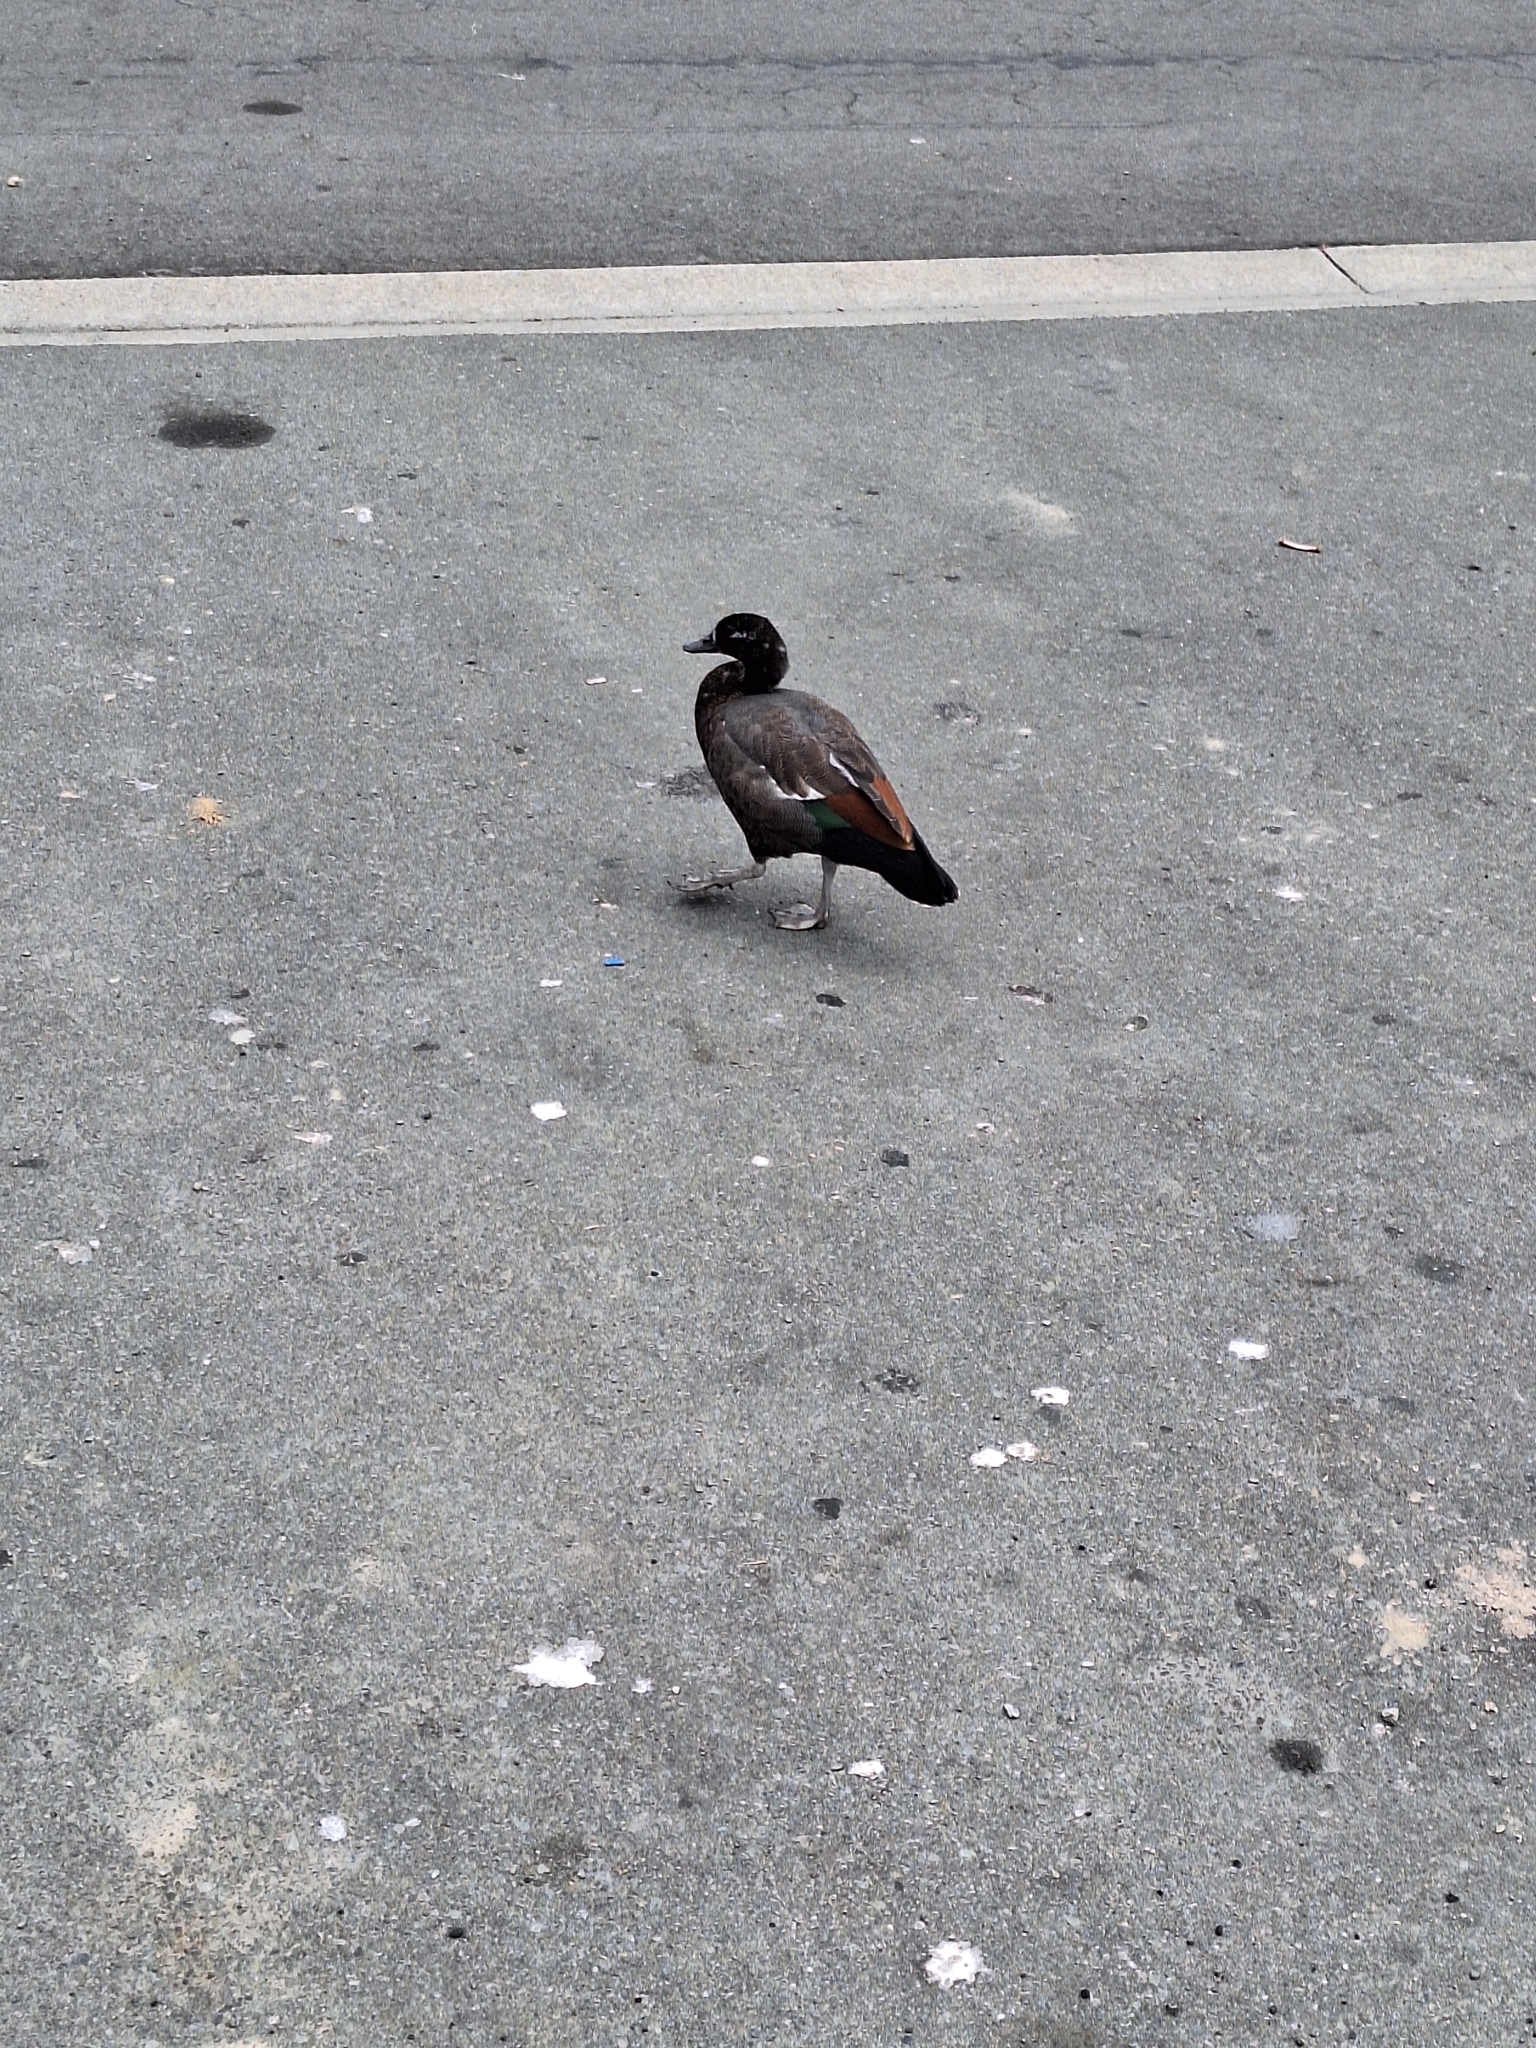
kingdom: Animalia
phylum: Chordata
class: Aves
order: Anseriformes
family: Anatidae
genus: Tadorna
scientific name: Tadorna variegata
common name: Paradise shelduck
